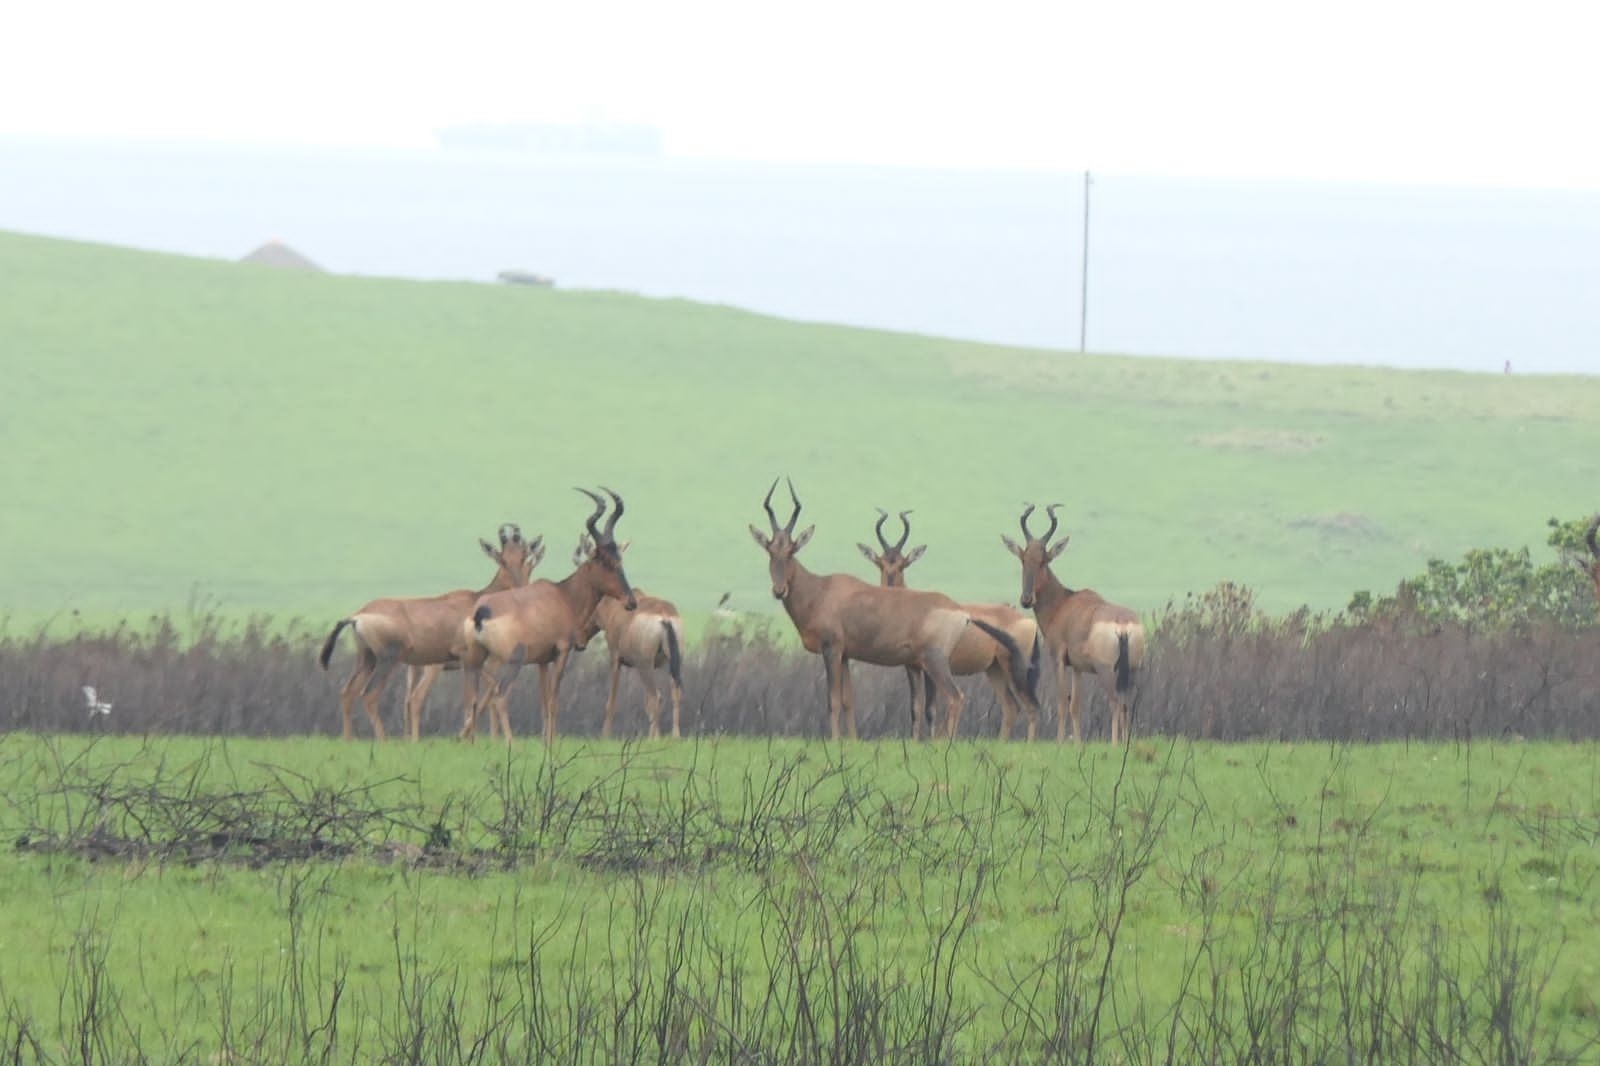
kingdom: Animalia
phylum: Chordata
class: Mammalia
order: Artiodactyla
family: Bovidae
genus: Alcelaphus
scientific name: Alcelaphus caama
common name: Red hartebeest
